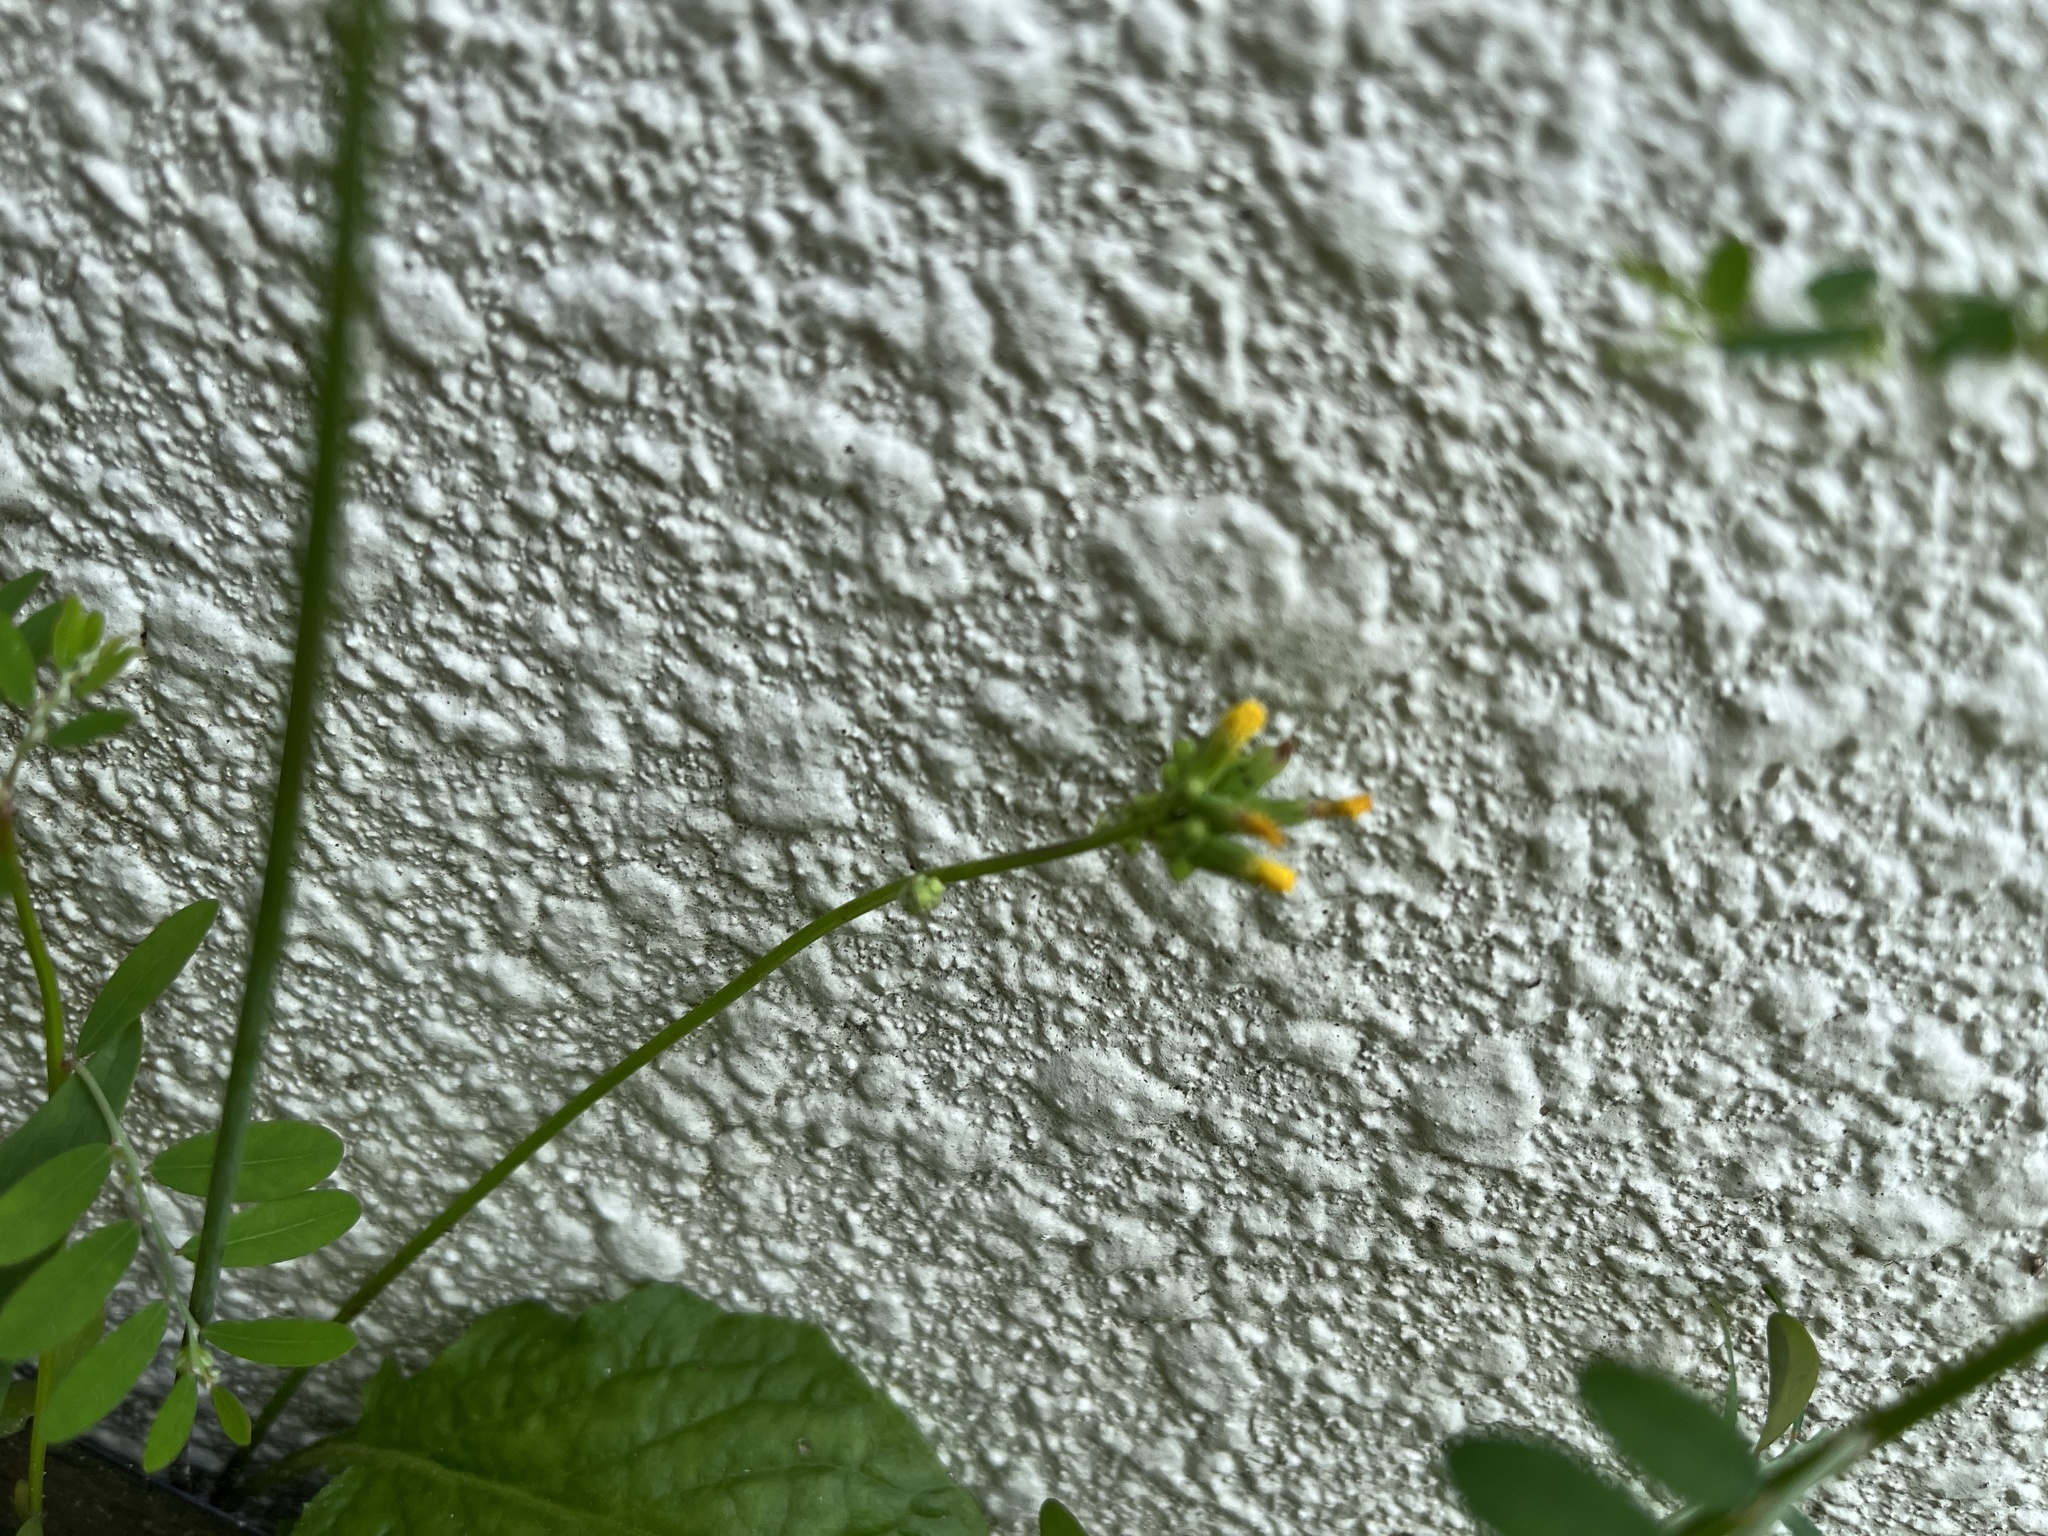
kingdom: Plantae
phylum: Tracheophyta
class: Magnoliopsida
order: Asterales
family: Asteraceae
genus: Youngia
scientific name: Youngia japonica
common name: Oriental false hawksbeard
